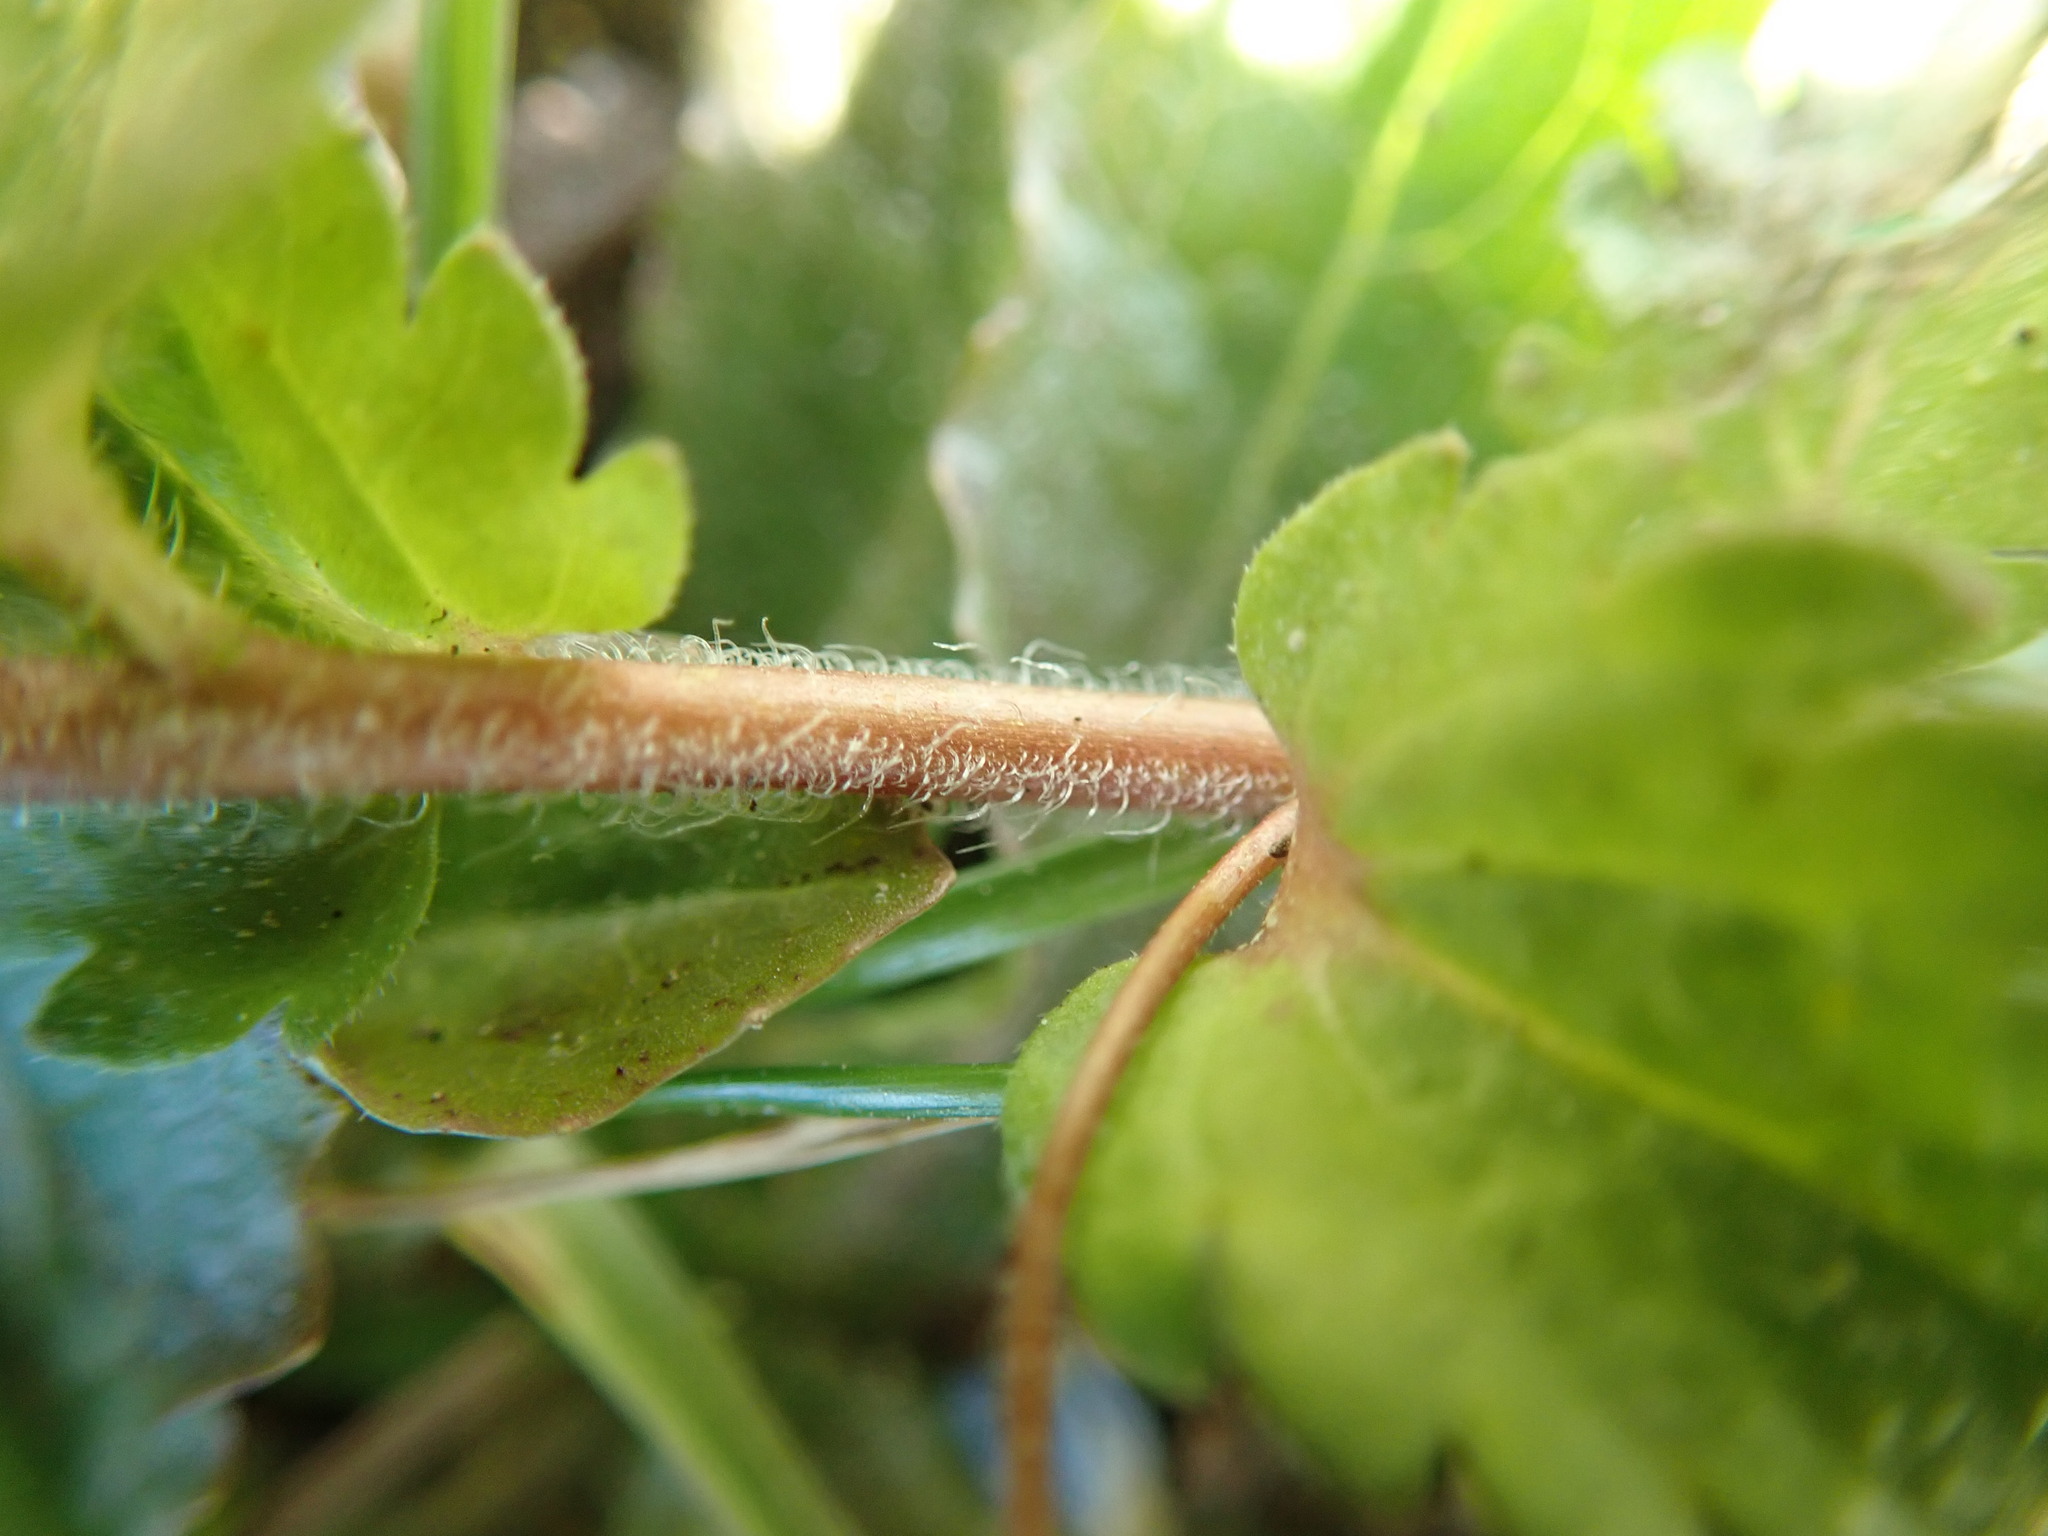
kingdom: Plantae
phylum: Tracheophyta
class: Magnoliopsida
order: Lamiales
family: Plantaginaceae
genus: Veronica
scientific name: Veronica persica
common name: Common field-speedwell
